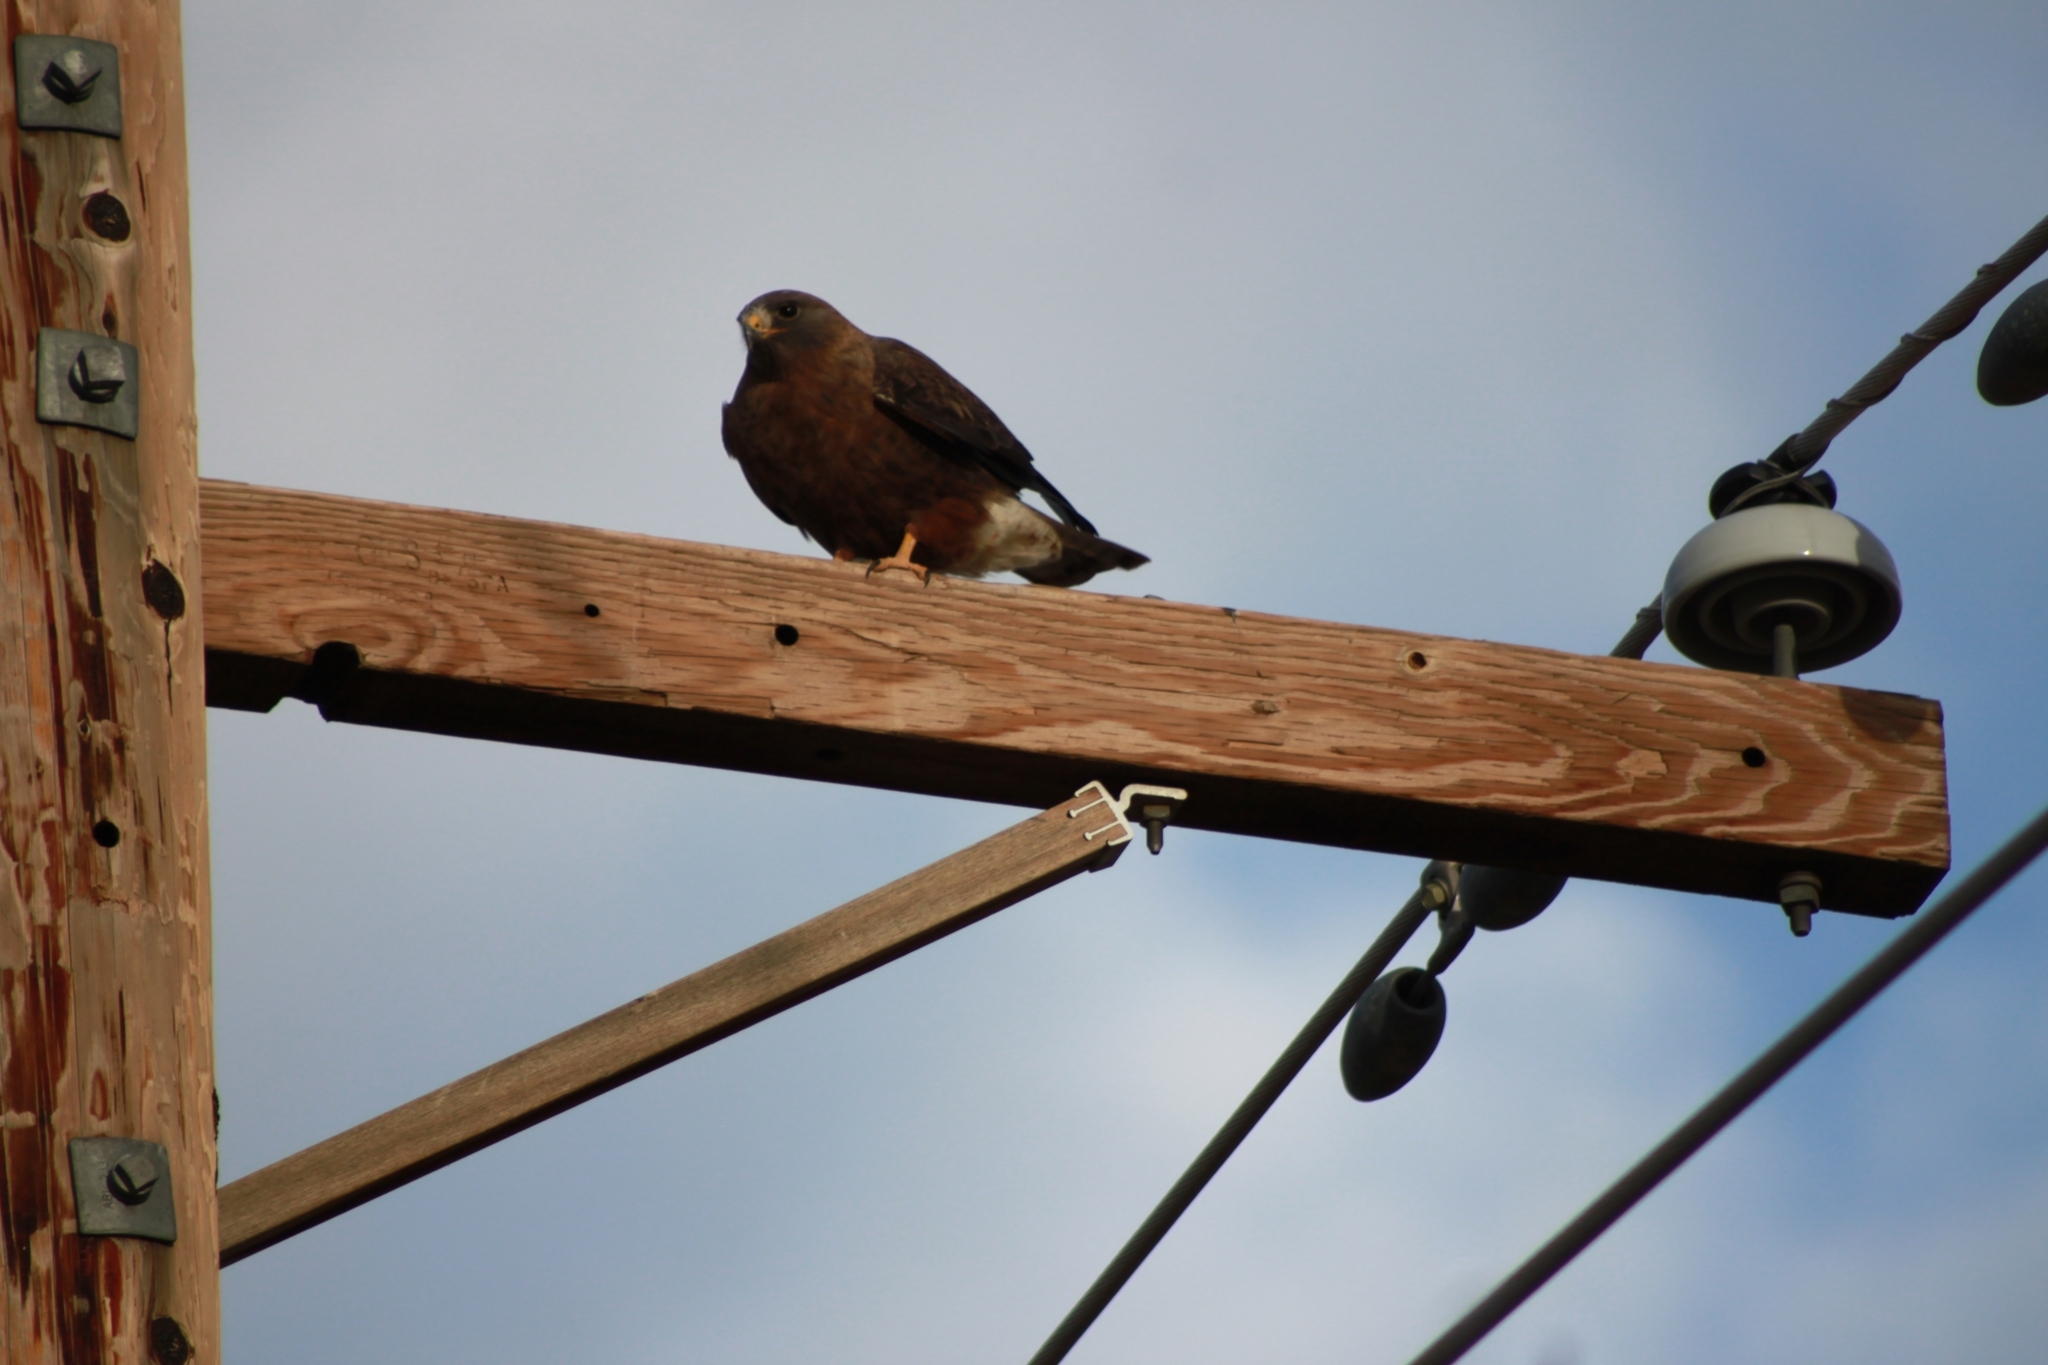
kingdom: Animalia
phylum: Chordata
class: Aves
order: Accipitriformes
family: Accipitridae
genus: Buteo
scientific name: Buteo swainsoni
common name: Swainson's hawk
